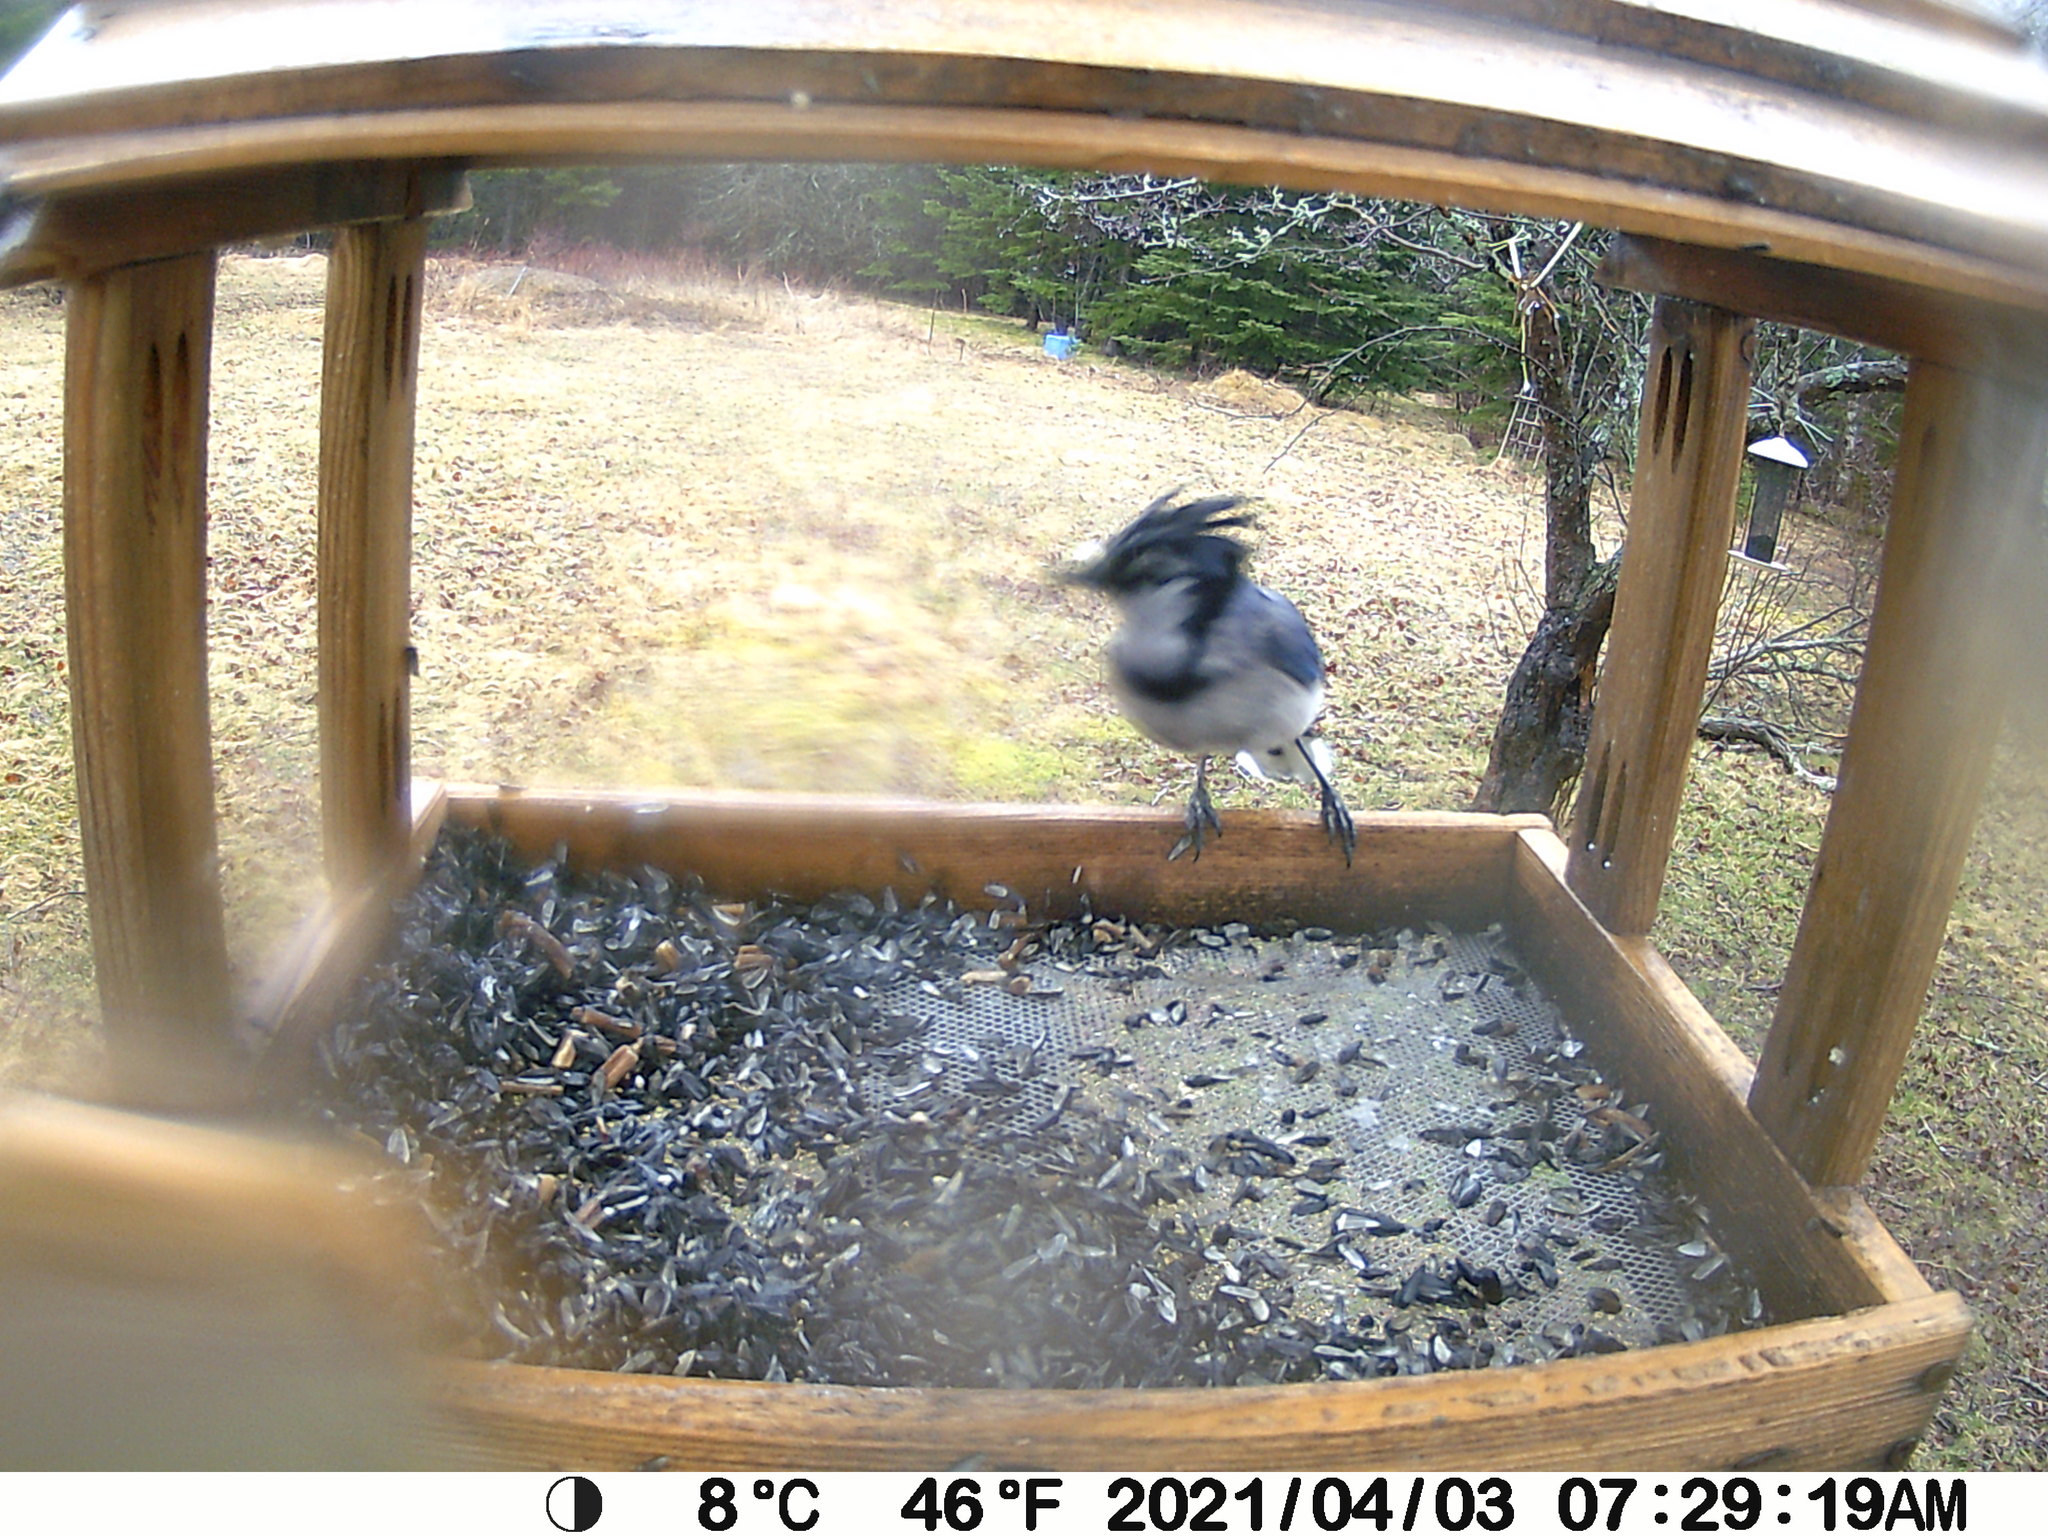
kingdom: Animalia
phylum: Chordata
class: Aves
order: Passeriformes
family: Corvidae
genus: Cyanocitta
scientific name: Cyanocitta cristata
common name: Blue jay
